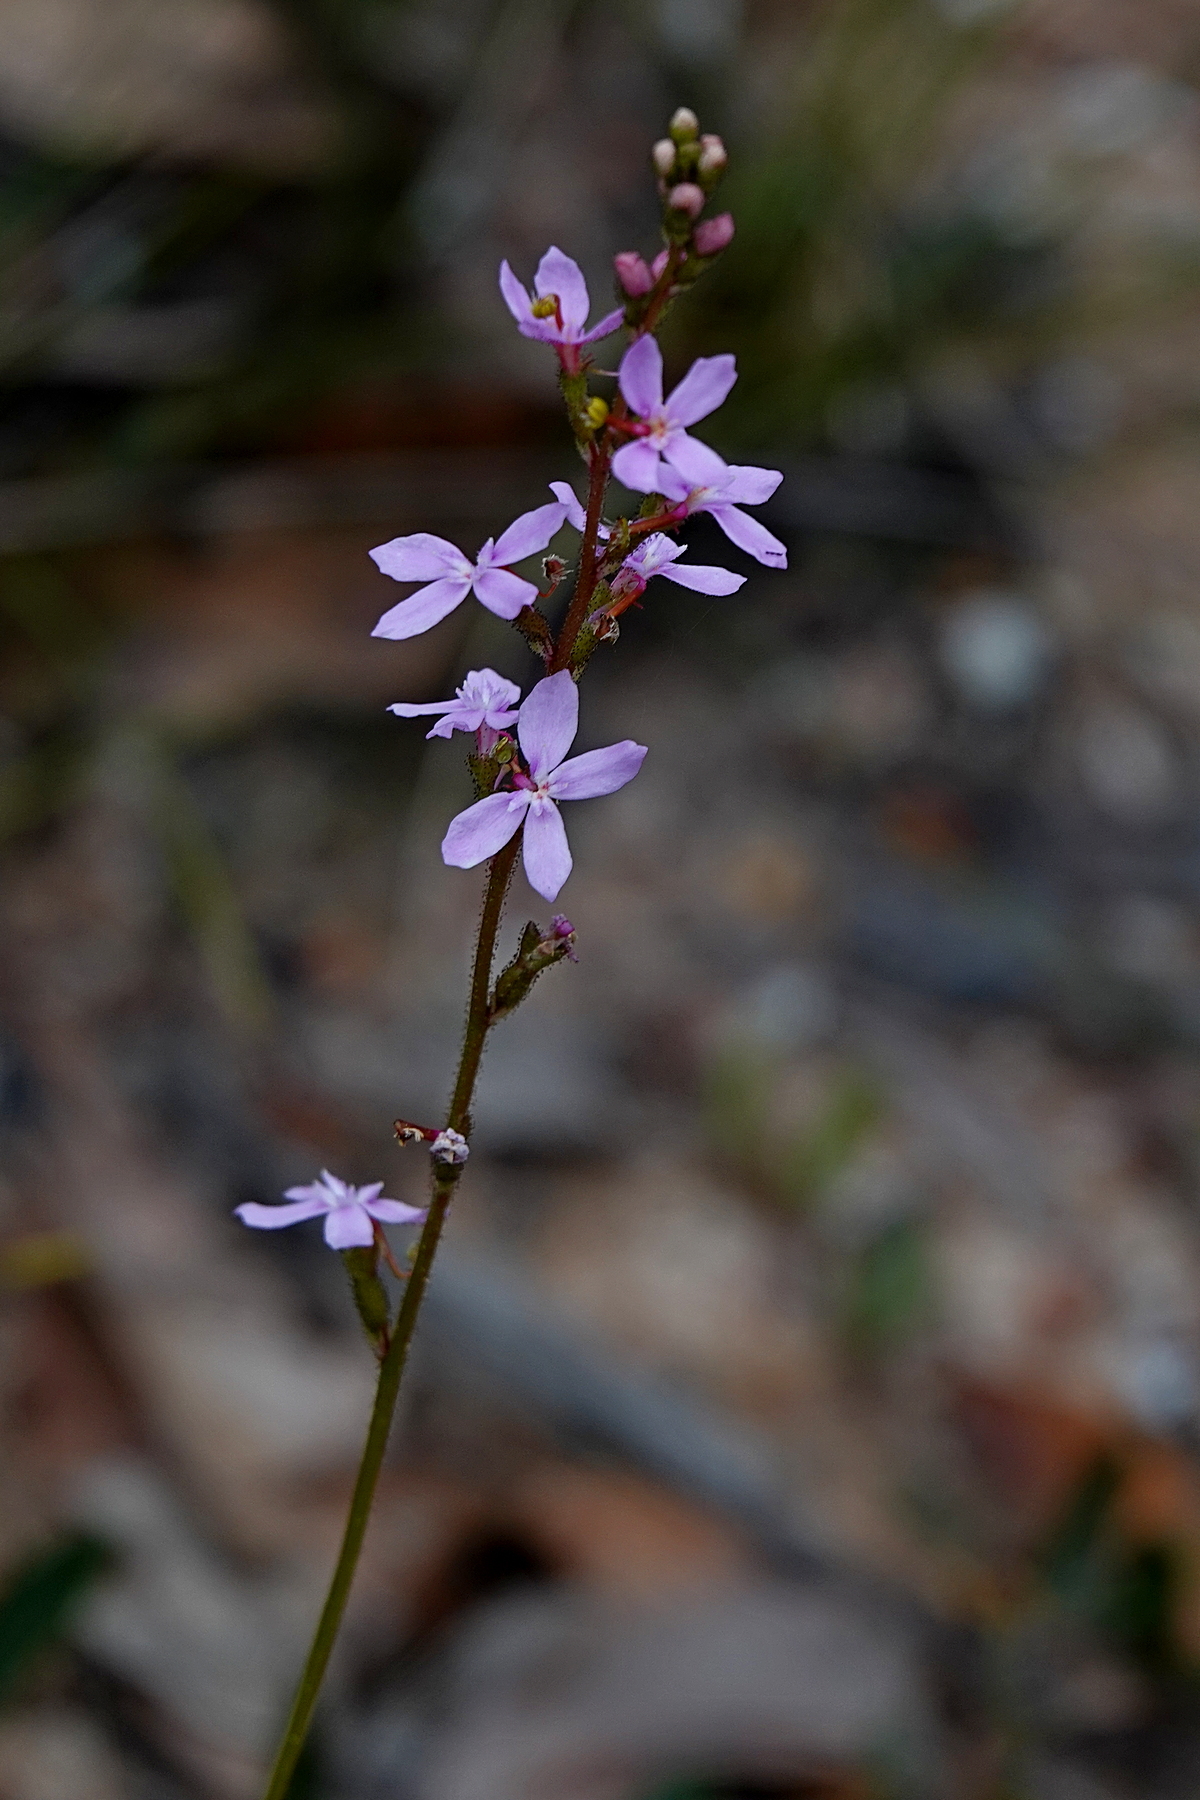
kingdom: Plantae
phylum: Tracheophyta
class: Magnoliopsida
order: Asterales
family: Stylidiaceae
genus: Stylidium
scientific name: Stylidium armeria
